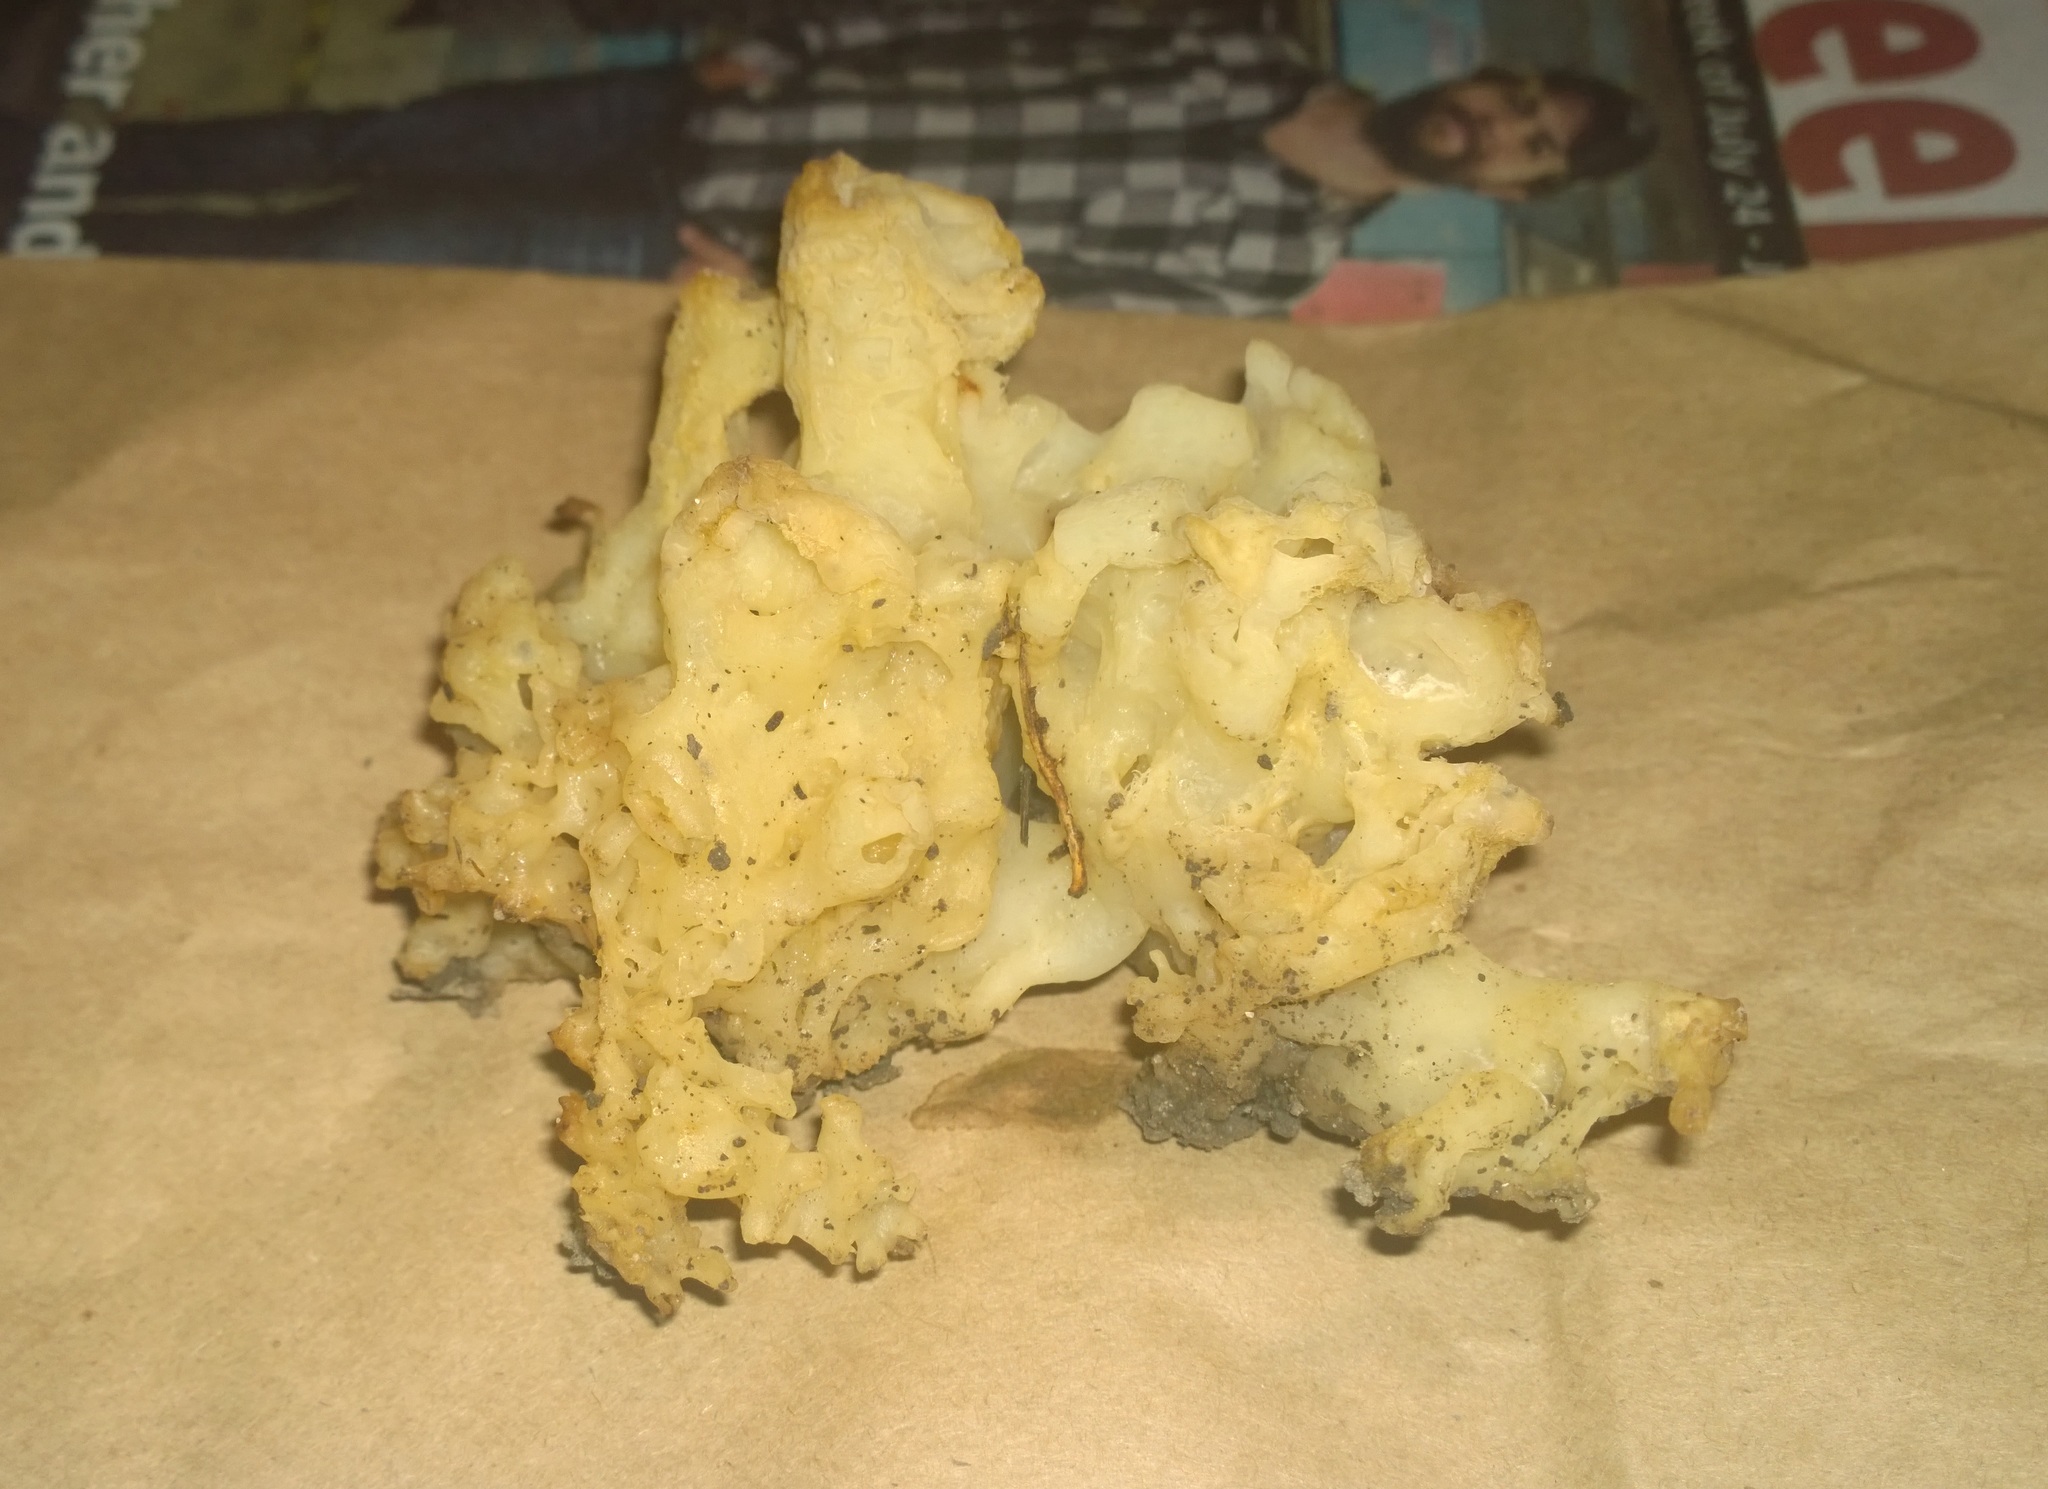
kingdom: Fungi
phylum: Basidiomycota
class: Agaricomycetes
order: Sebacinales
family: Sebacinaceae
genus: Sebacina
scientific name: Sebacina sparassoidea
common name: White coral jelly fungus
